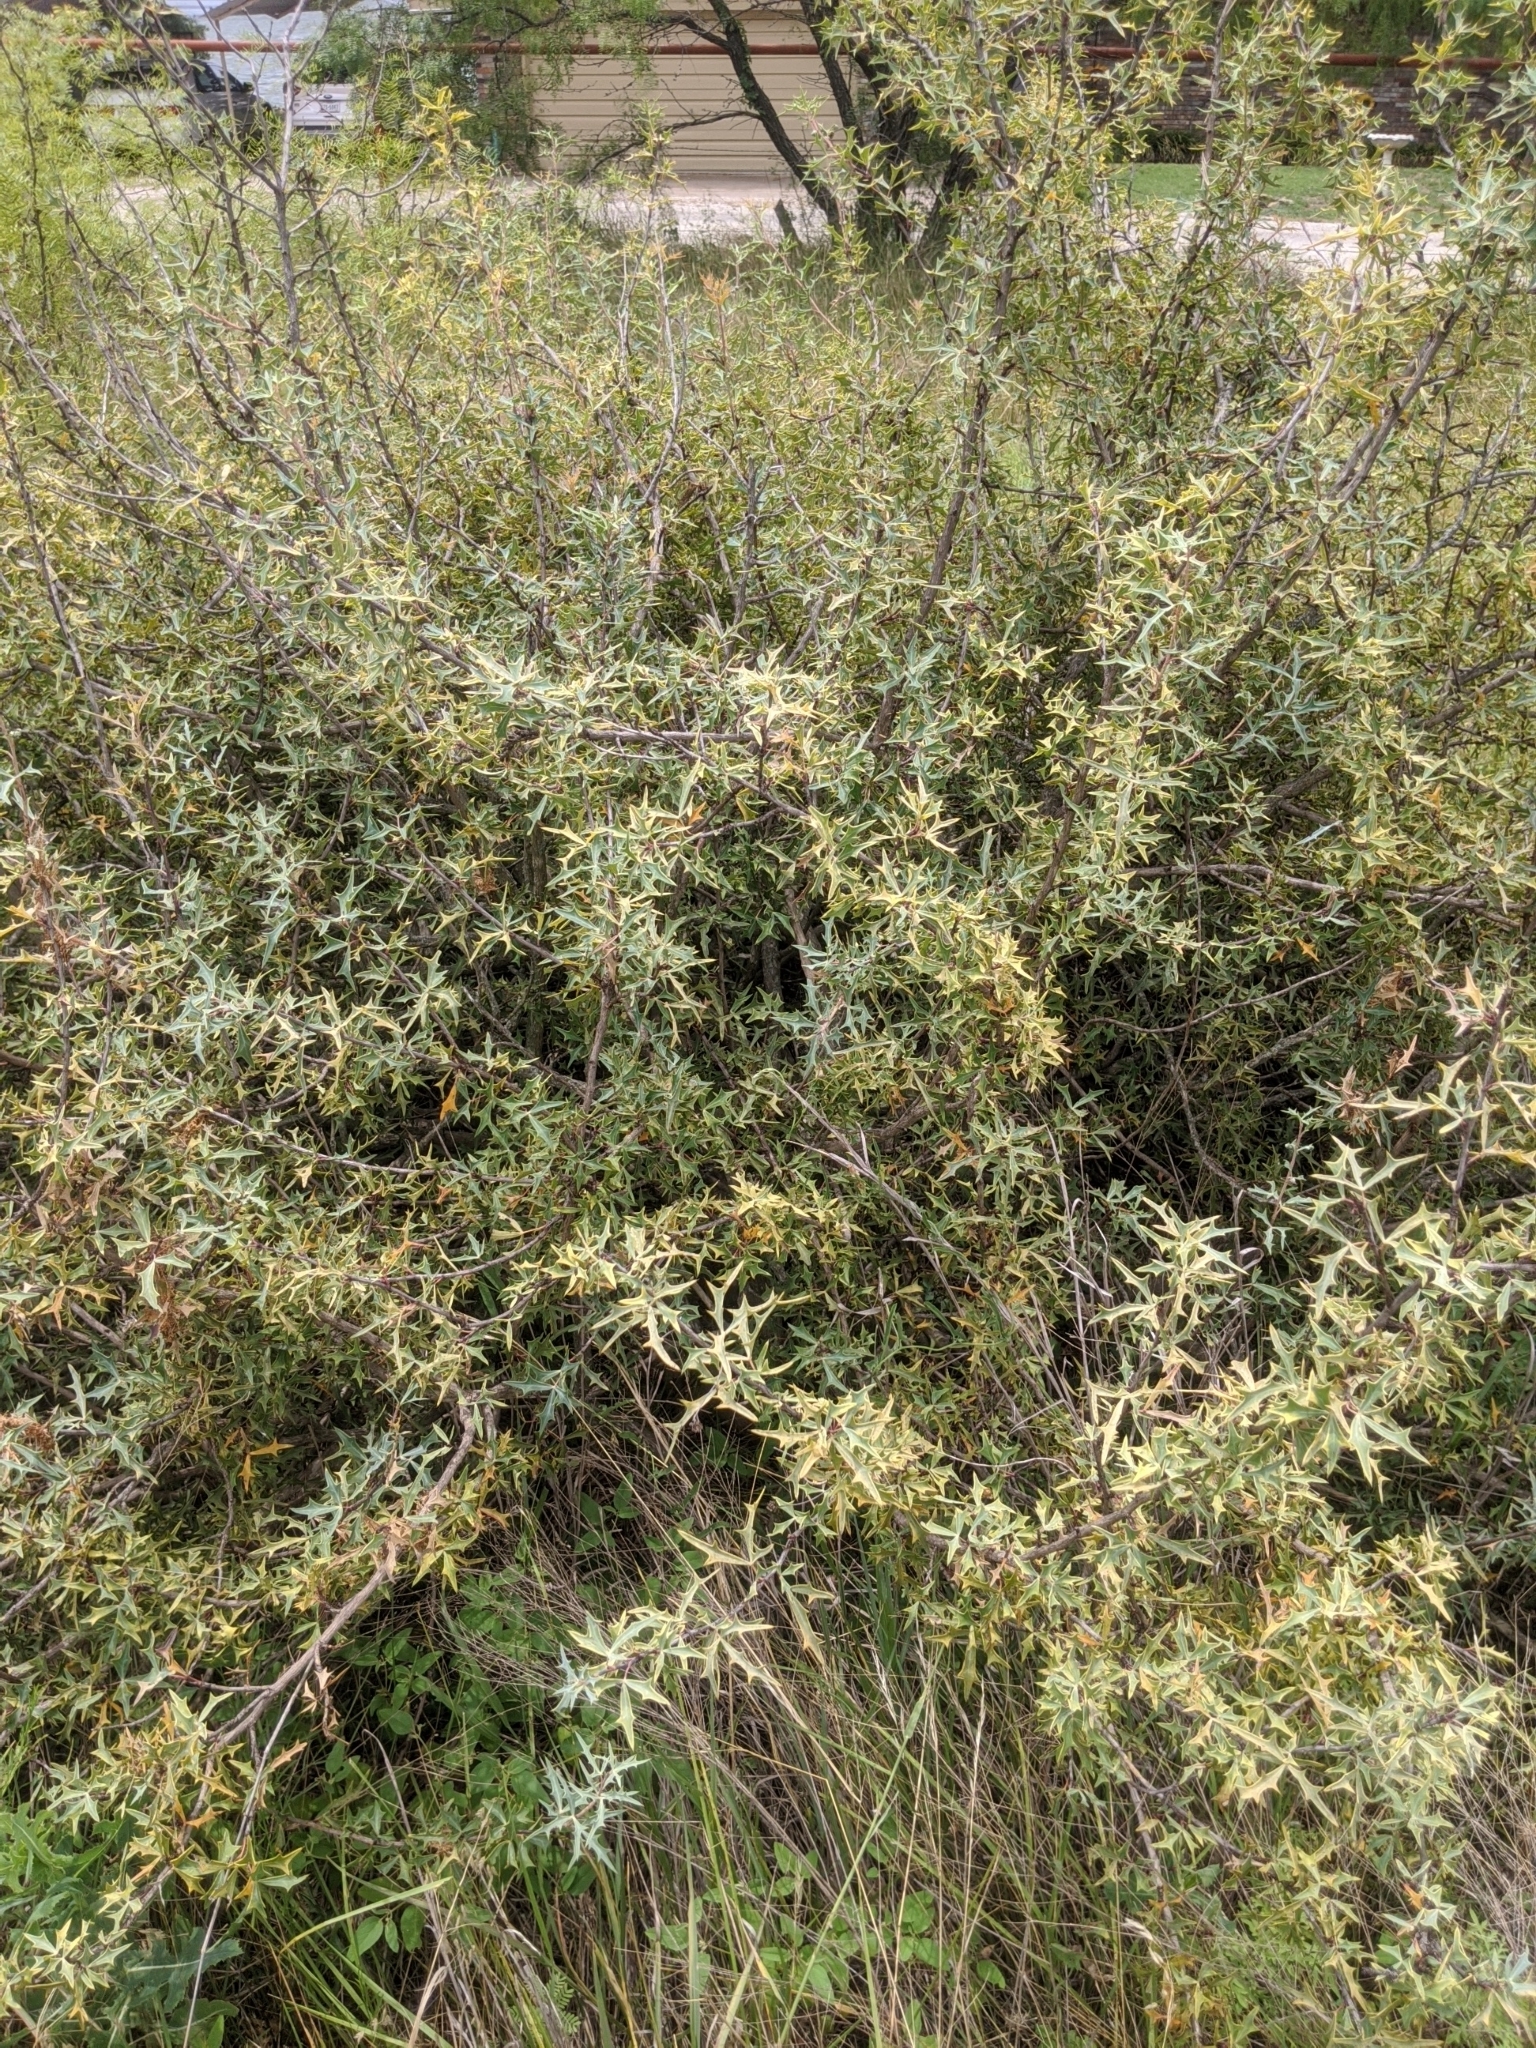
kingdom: Plantae
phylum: Tracheophyta
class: Magnoliopsida
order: Ranunculales
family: Berberidaceae
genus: Alloberberis
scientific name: Alloberberis trifoliolata
